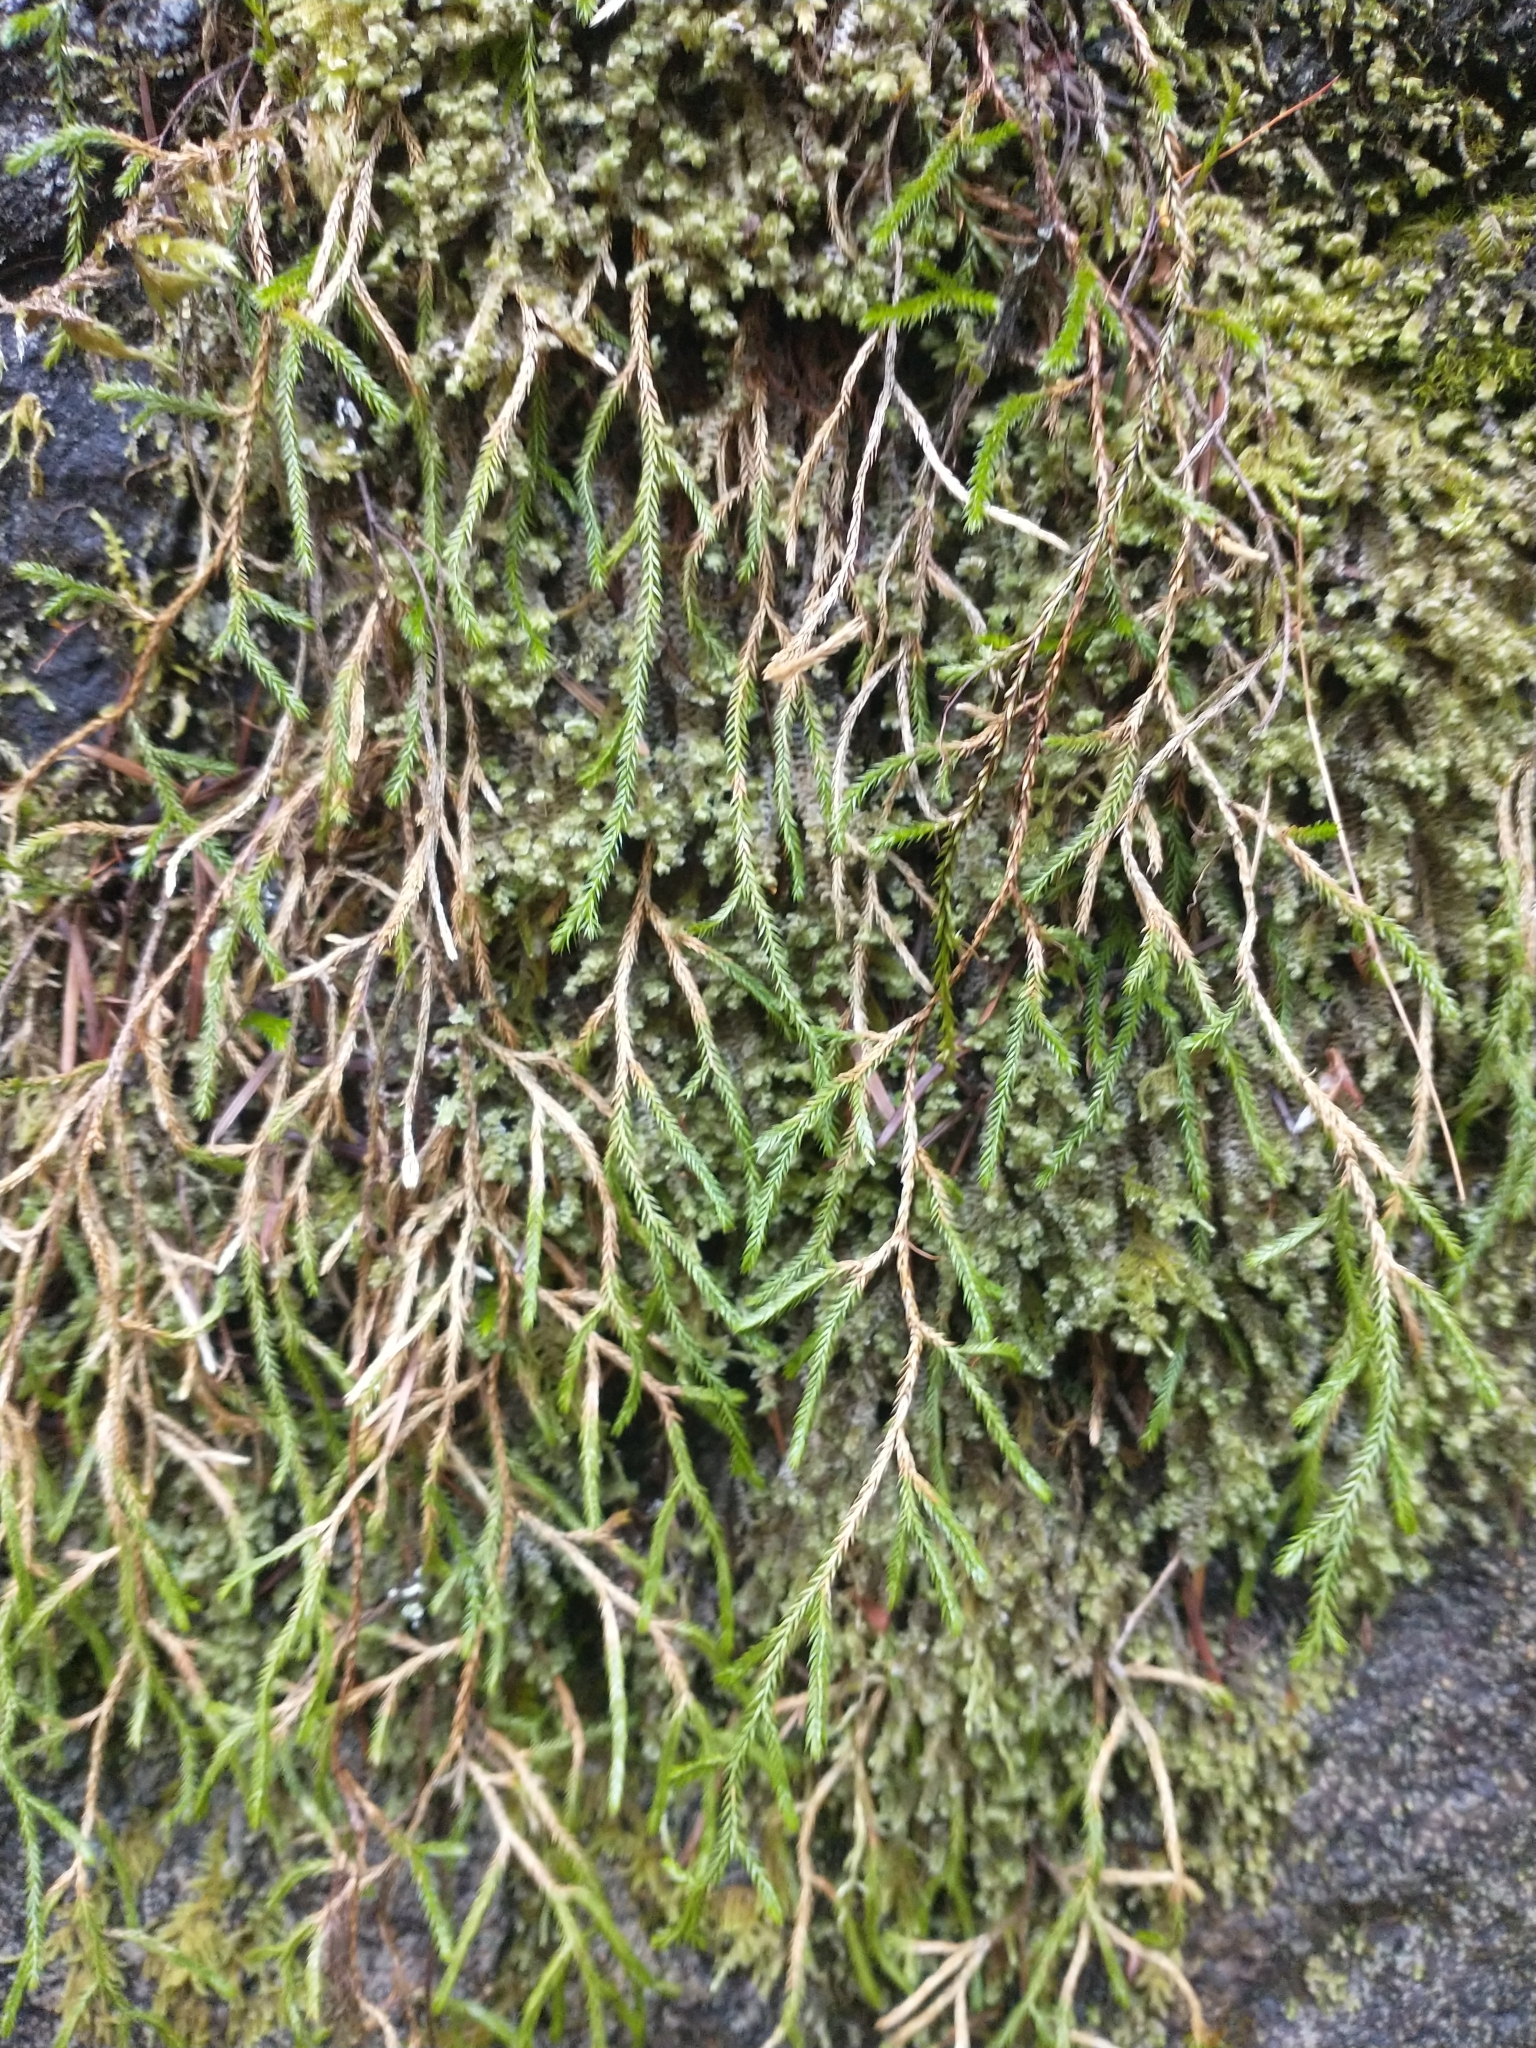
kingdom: Plantae
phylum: Tracheophyta
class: Lycopodiopsida
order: Selaginellales
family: Selaginellaceae
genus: Selaginella
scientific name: Selaginella oregana
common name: Oregon selaginella
